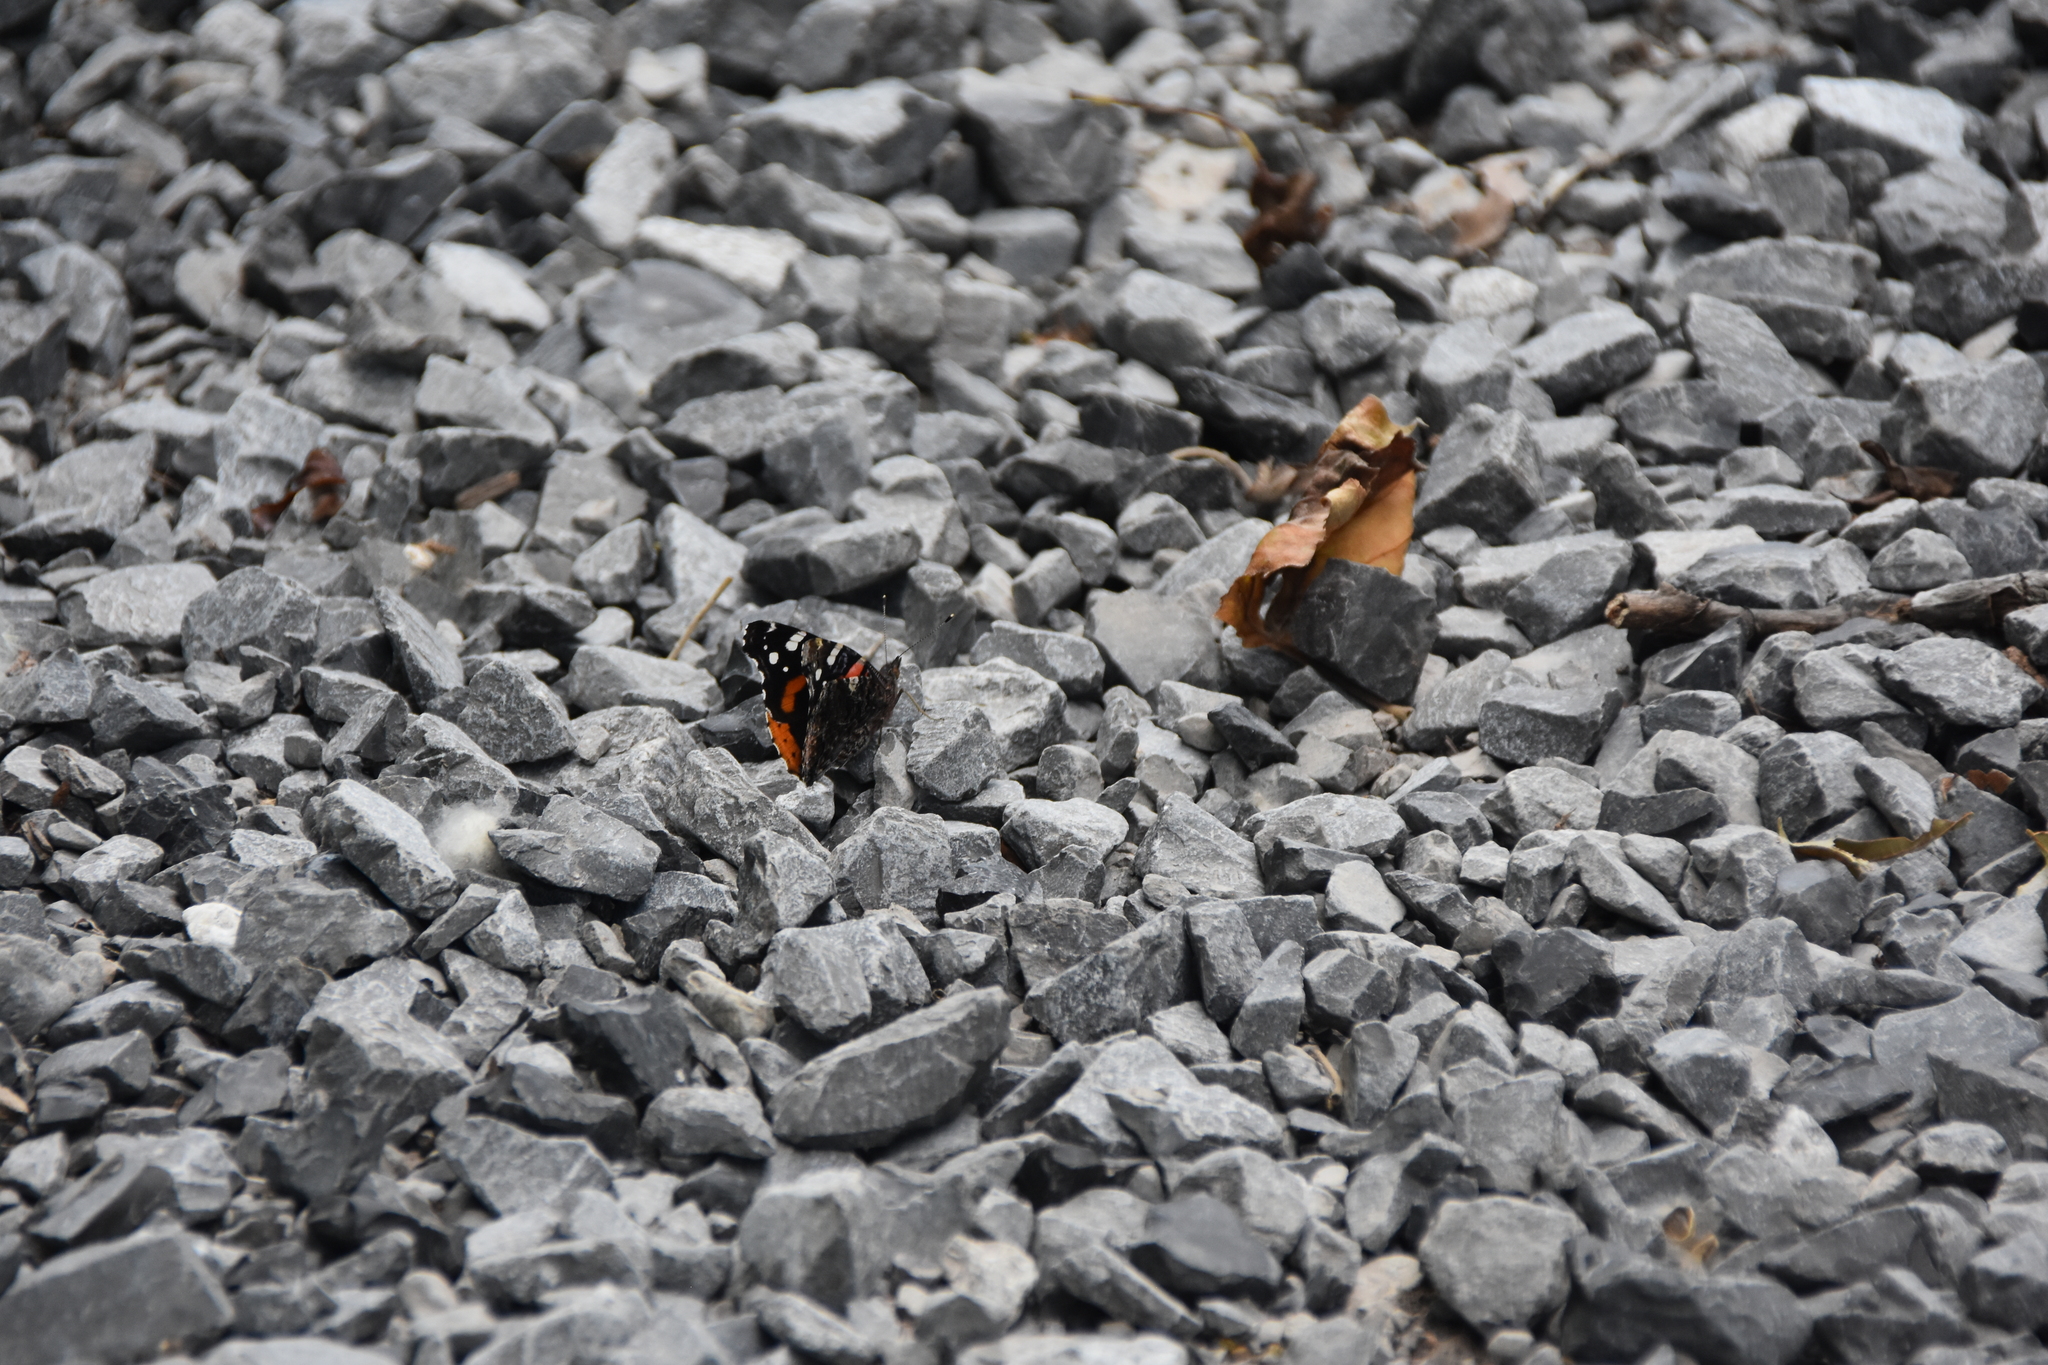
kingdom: Animalia
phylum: Arthropoda
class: Insecta
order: Lepidoptera
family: Nymphalidae
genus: Vanessa
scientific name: Vanessa atalanta
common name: Red admiral
